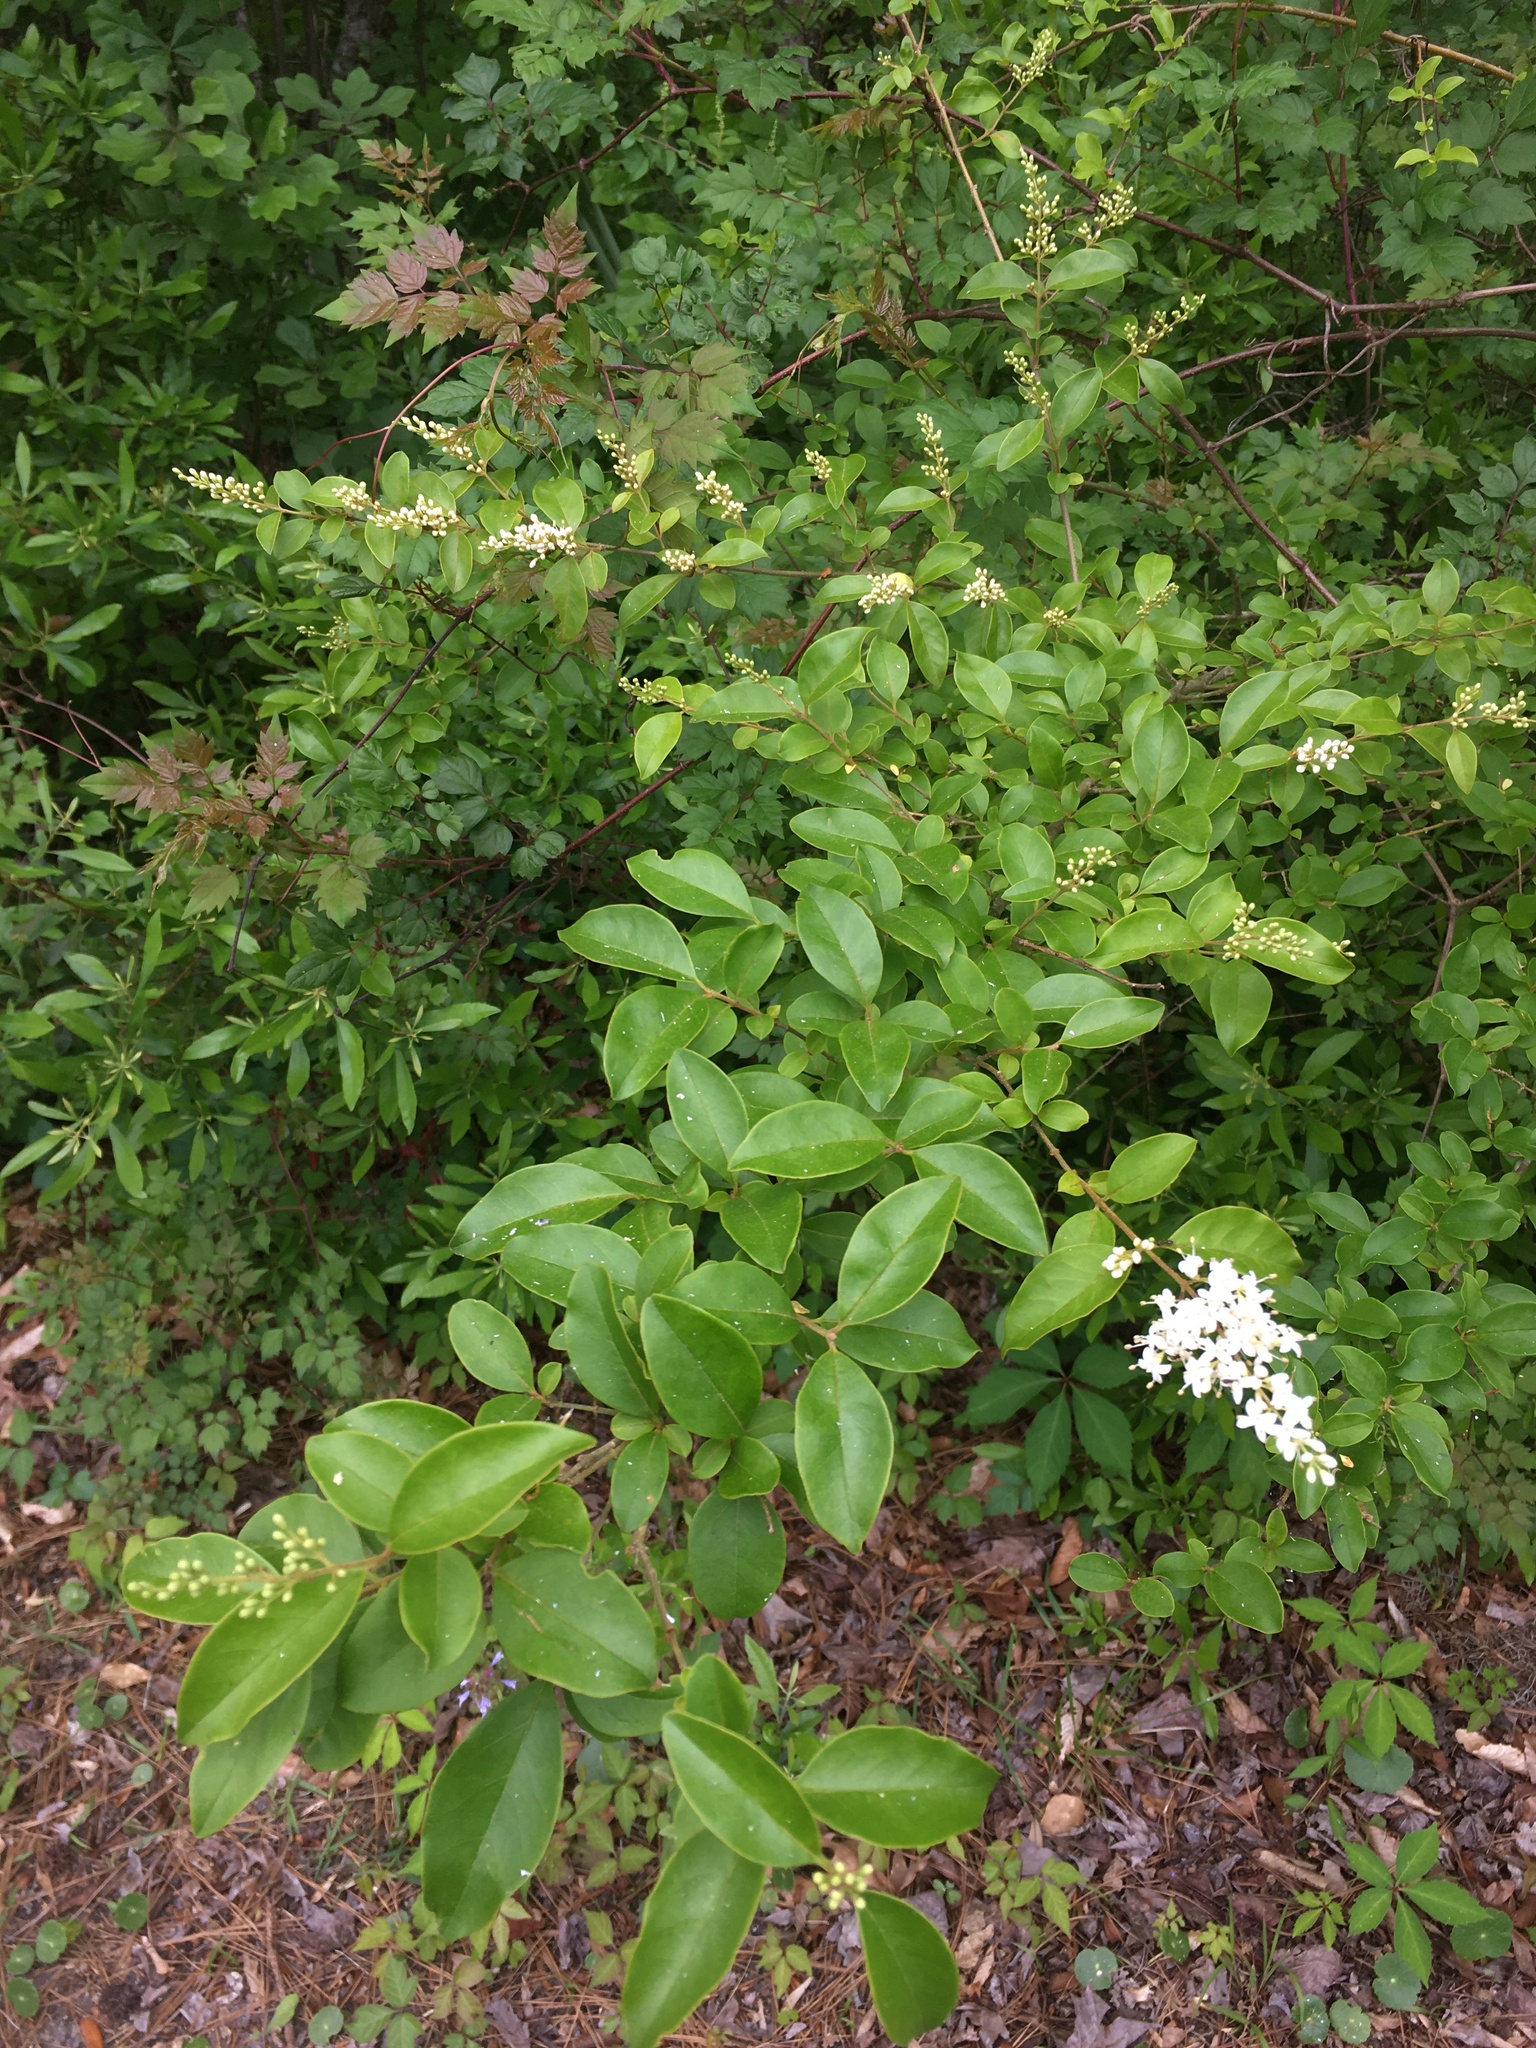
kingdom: Plantae
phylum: Tracheophyta
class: Magnoliopsida
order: Lamiales
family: Oleaceae
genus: Ligustrum
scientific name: Ligustrum sinense
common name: Chinese privet
